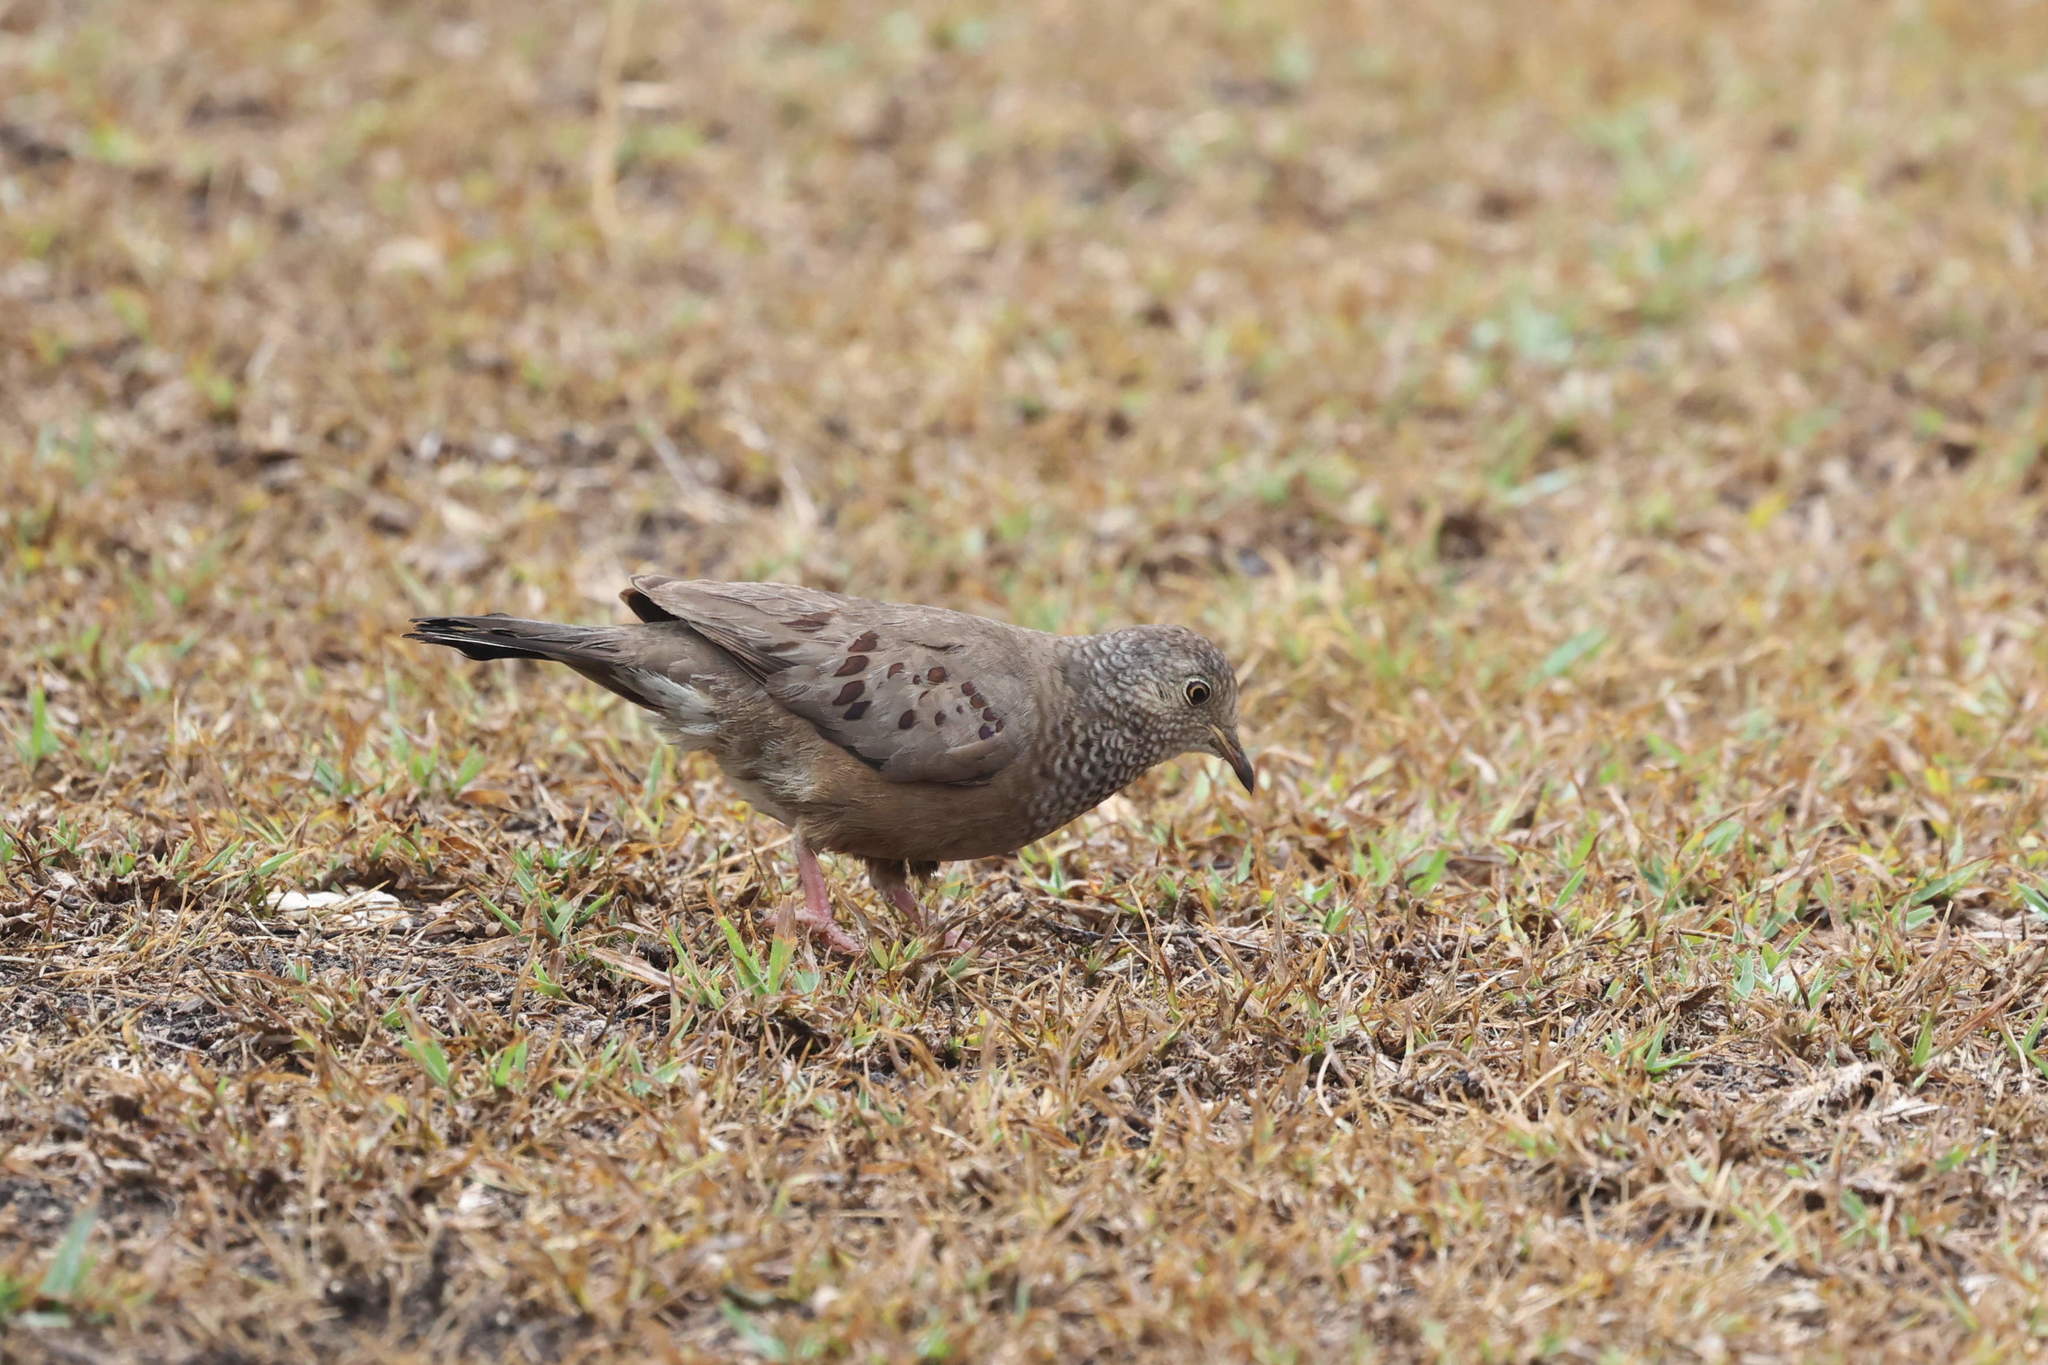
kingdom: Animalia
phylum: Chordata
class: Aves
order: Columbiformes
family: Columbidae
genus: Columbina
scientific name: Columbina passerina
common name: Common ground-dove
